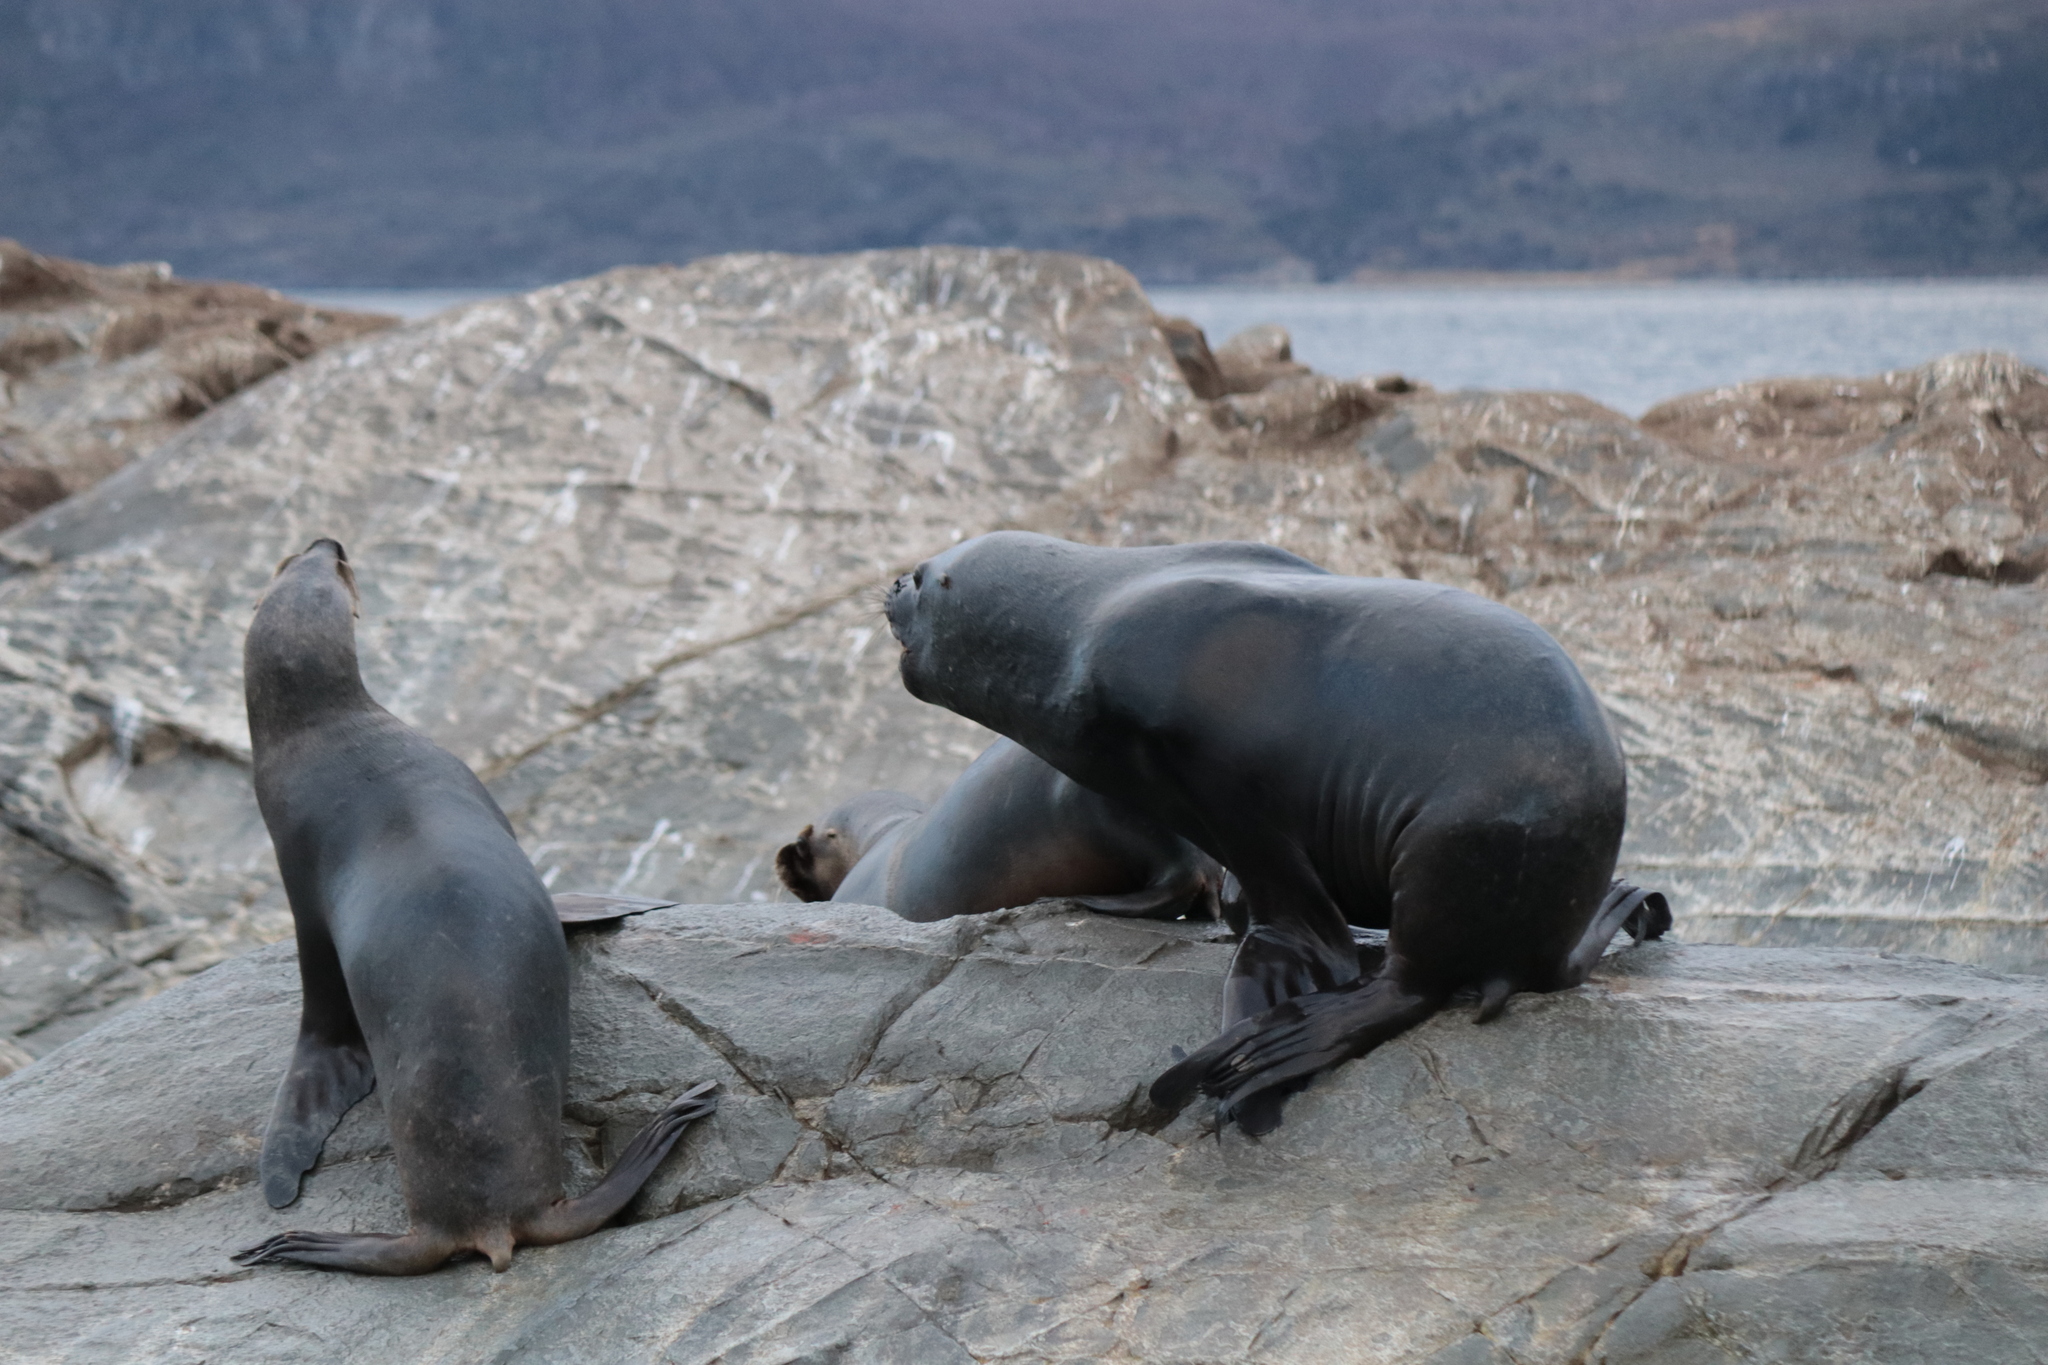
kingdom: Animalia
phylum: Chordata
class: Mammalia
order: Carnivora
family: Otariidae
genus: Otaria
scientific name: Otaria byronia
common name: South american sea lion
